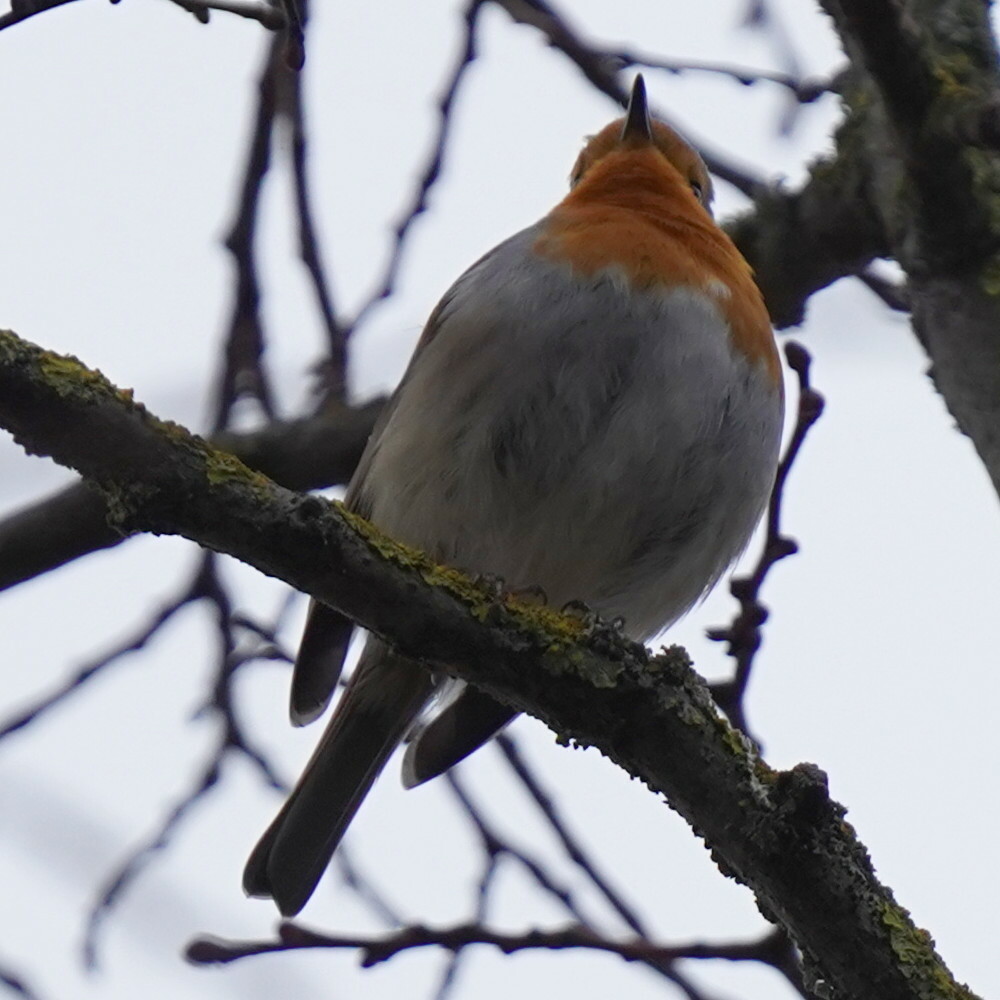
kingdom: Animalia
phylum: Chordata
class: Aves
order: Passeriformes
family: Muscicapidae
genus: Erithacus
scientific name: Erithacus rubecula
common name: European robin
